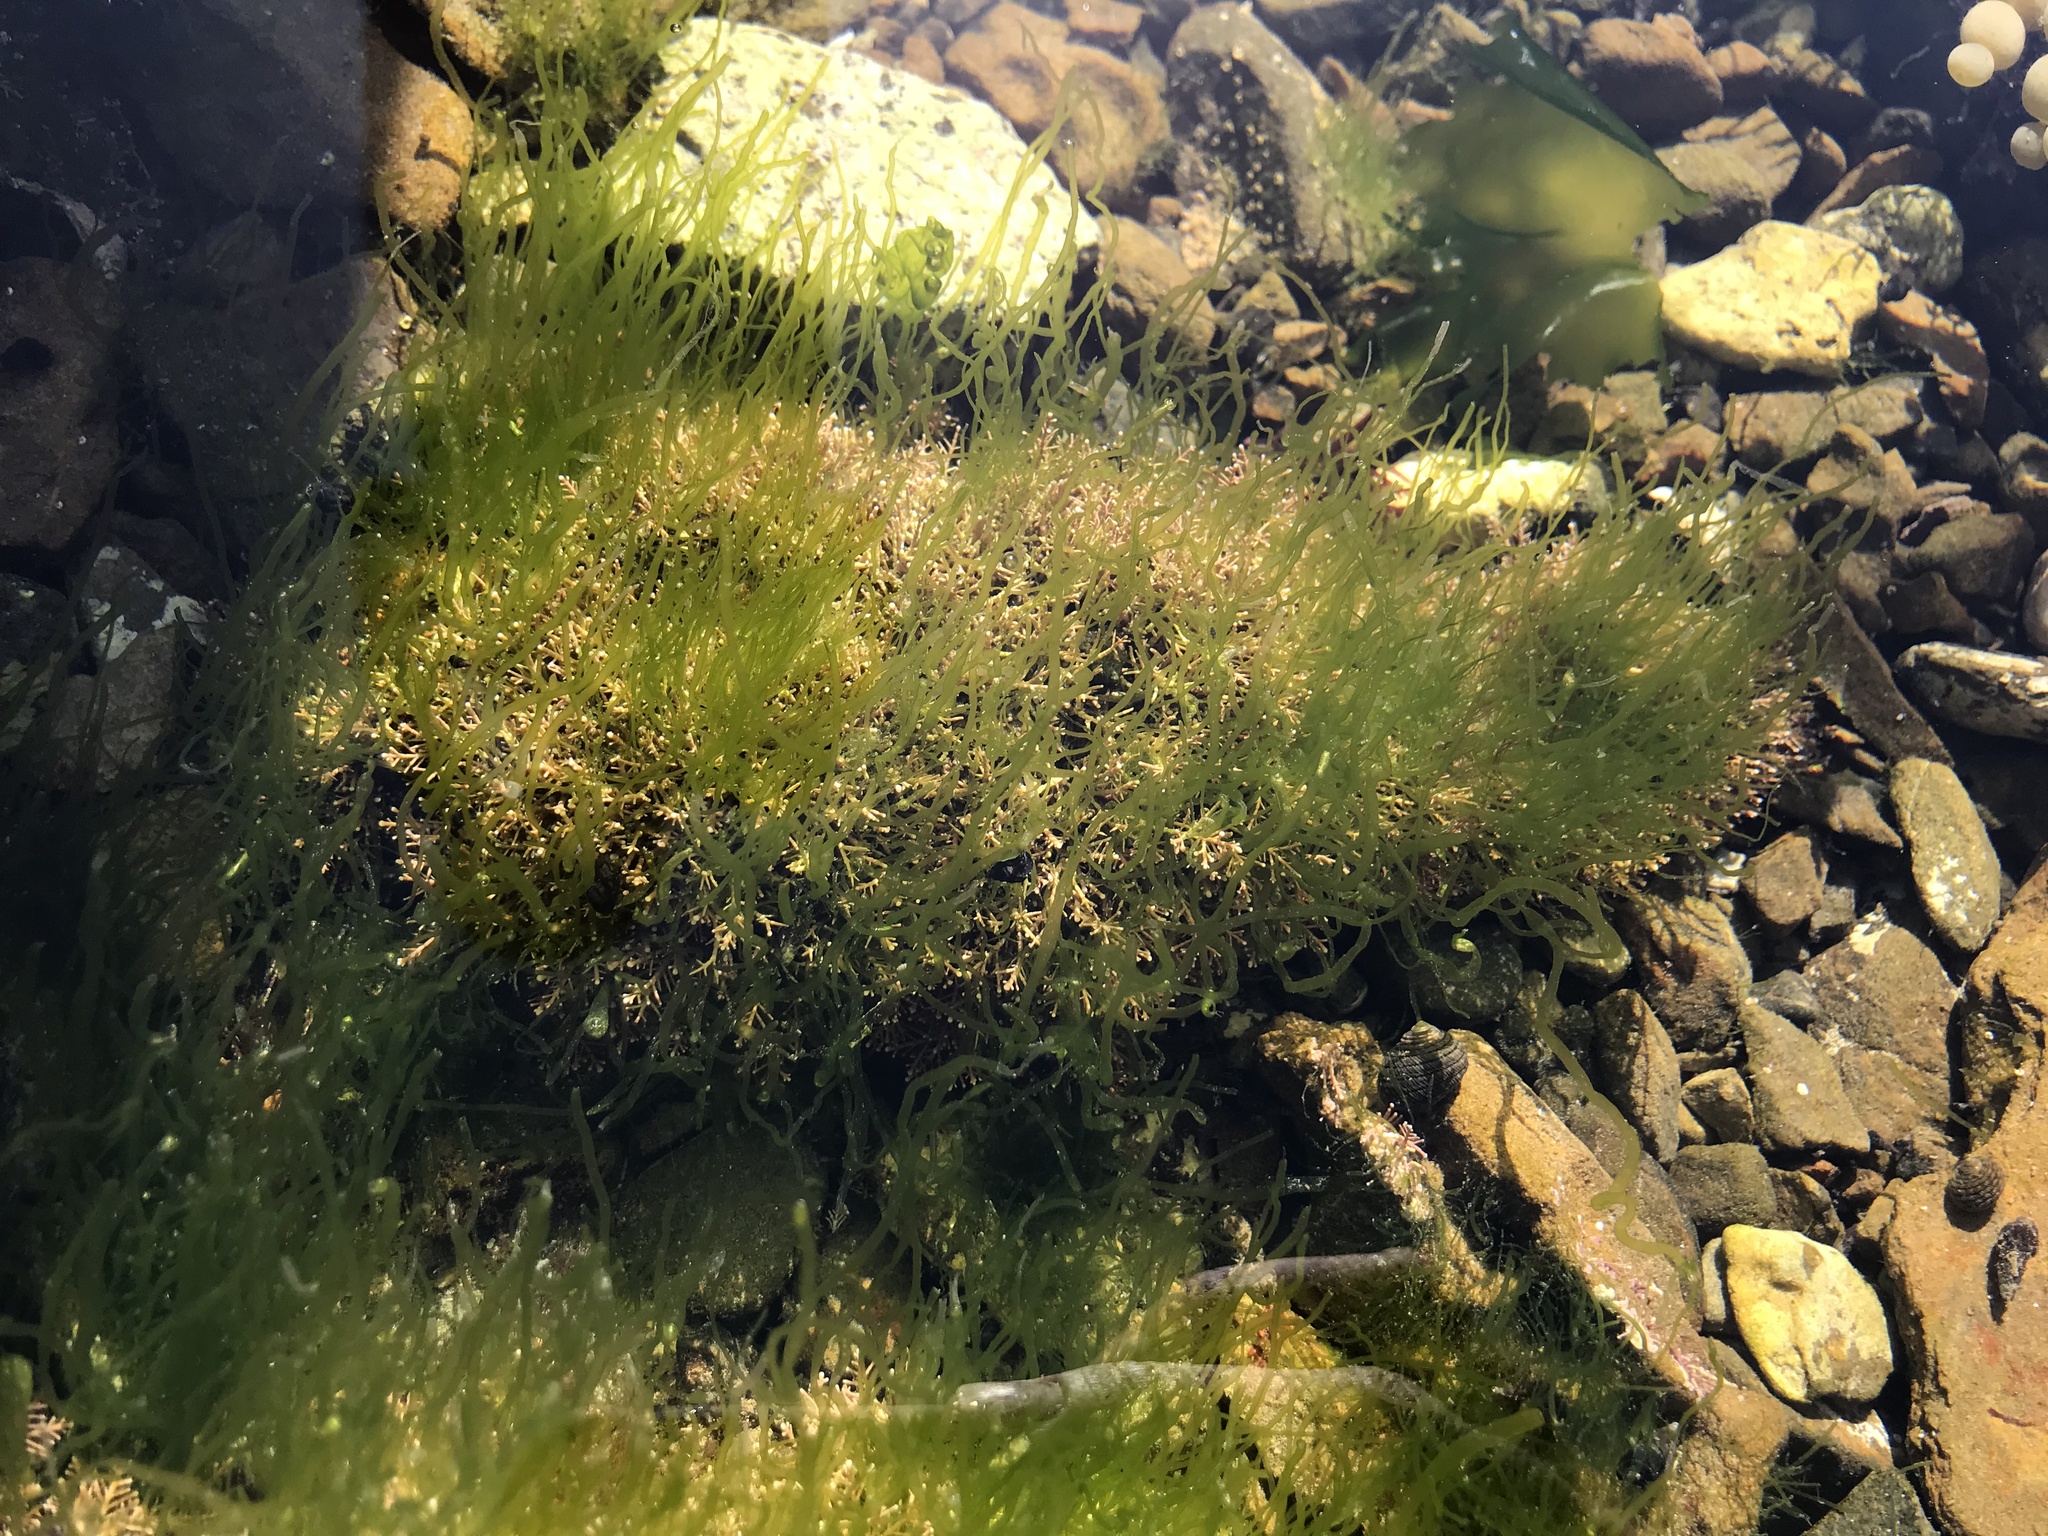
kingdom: Plantae
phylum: Chlorophyta
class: Ulvophyceae
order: Ulvales
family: Ulvaceae
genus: Ulva
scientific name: Ulva intestinalis
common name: Gut weed
